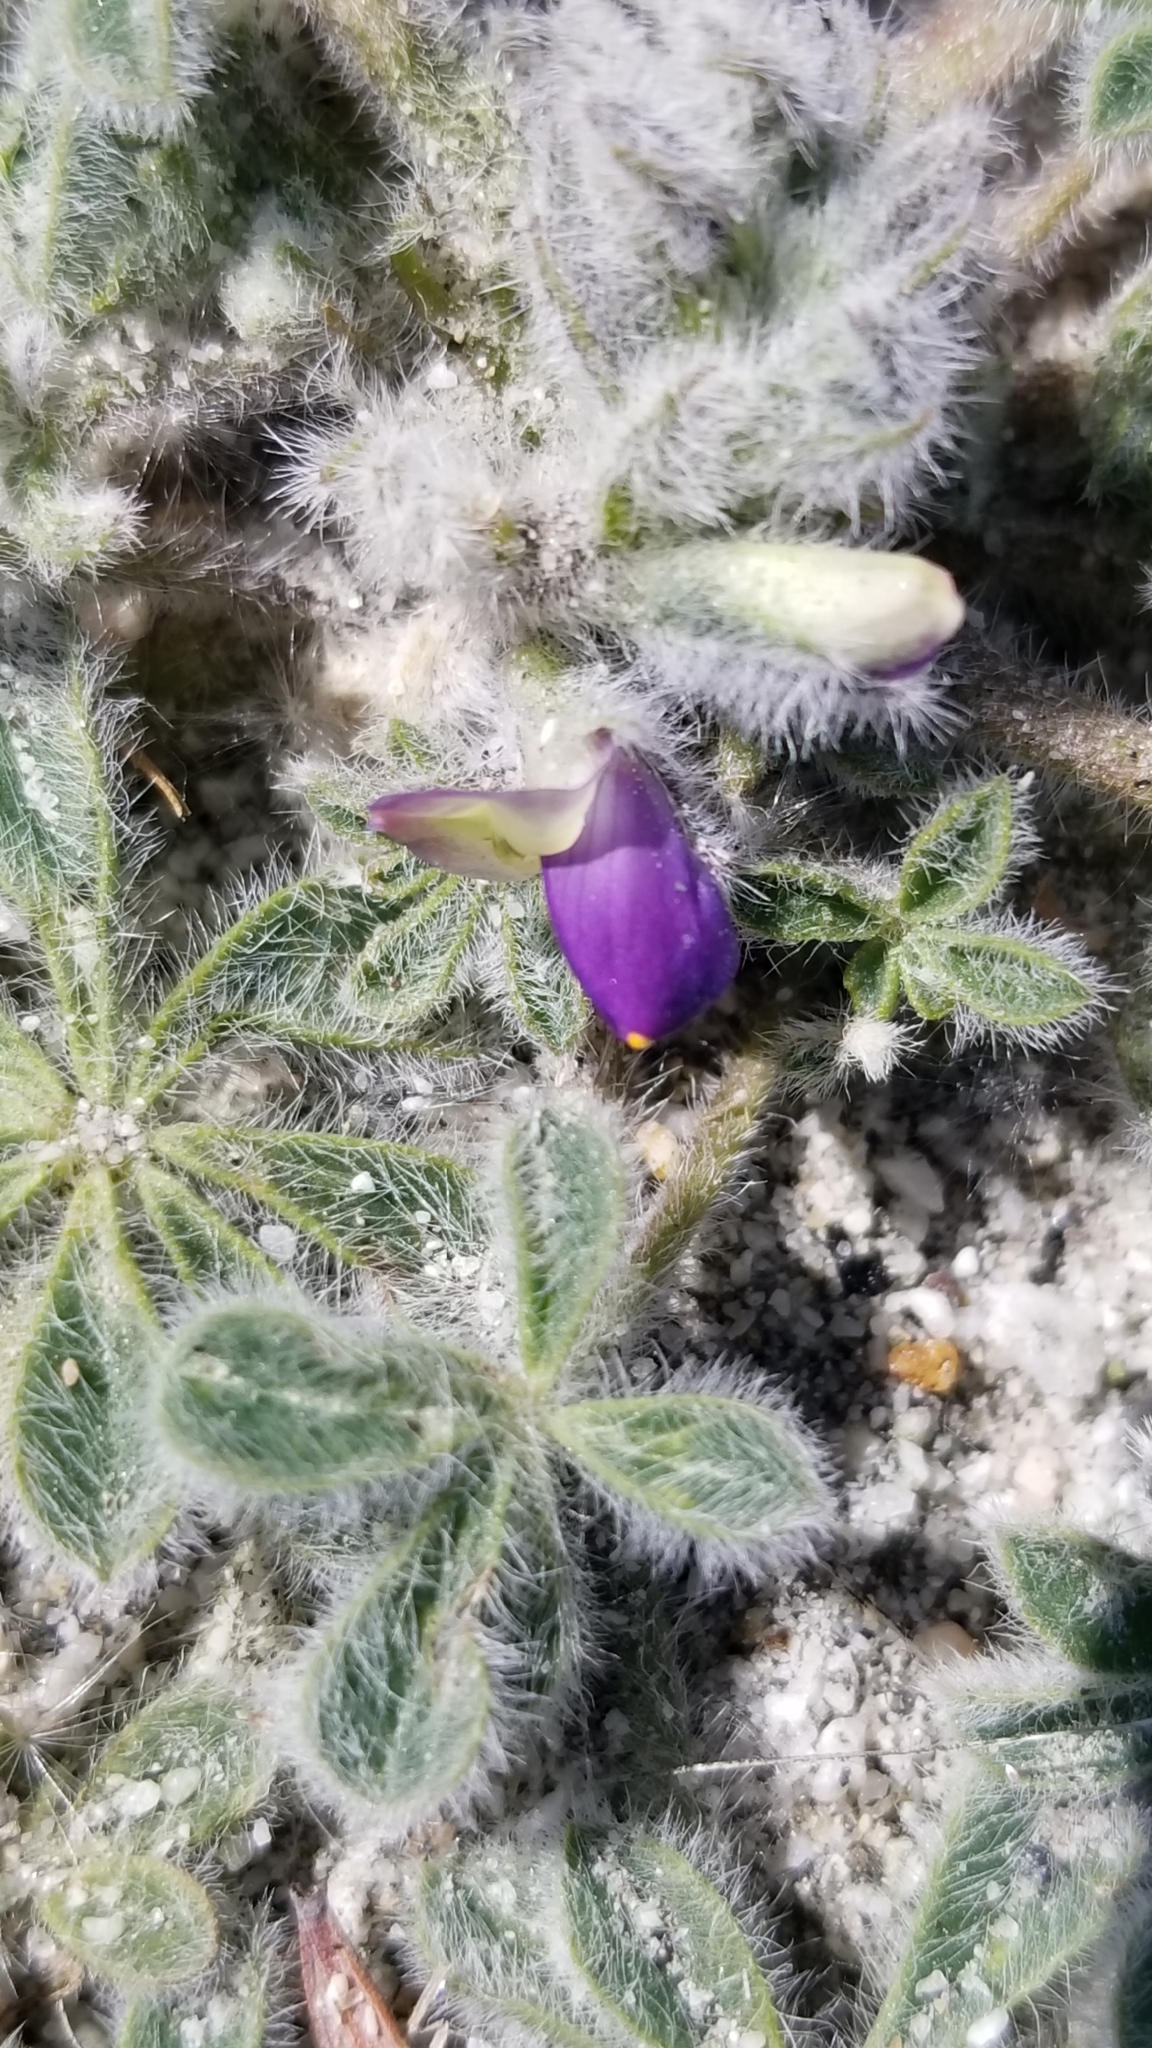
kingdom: Plantae
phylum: Tracheophyta
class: Magnoliopsida
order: Fabales
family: Fabaceae
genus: Lupinus
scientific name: Lupinus concinnus
